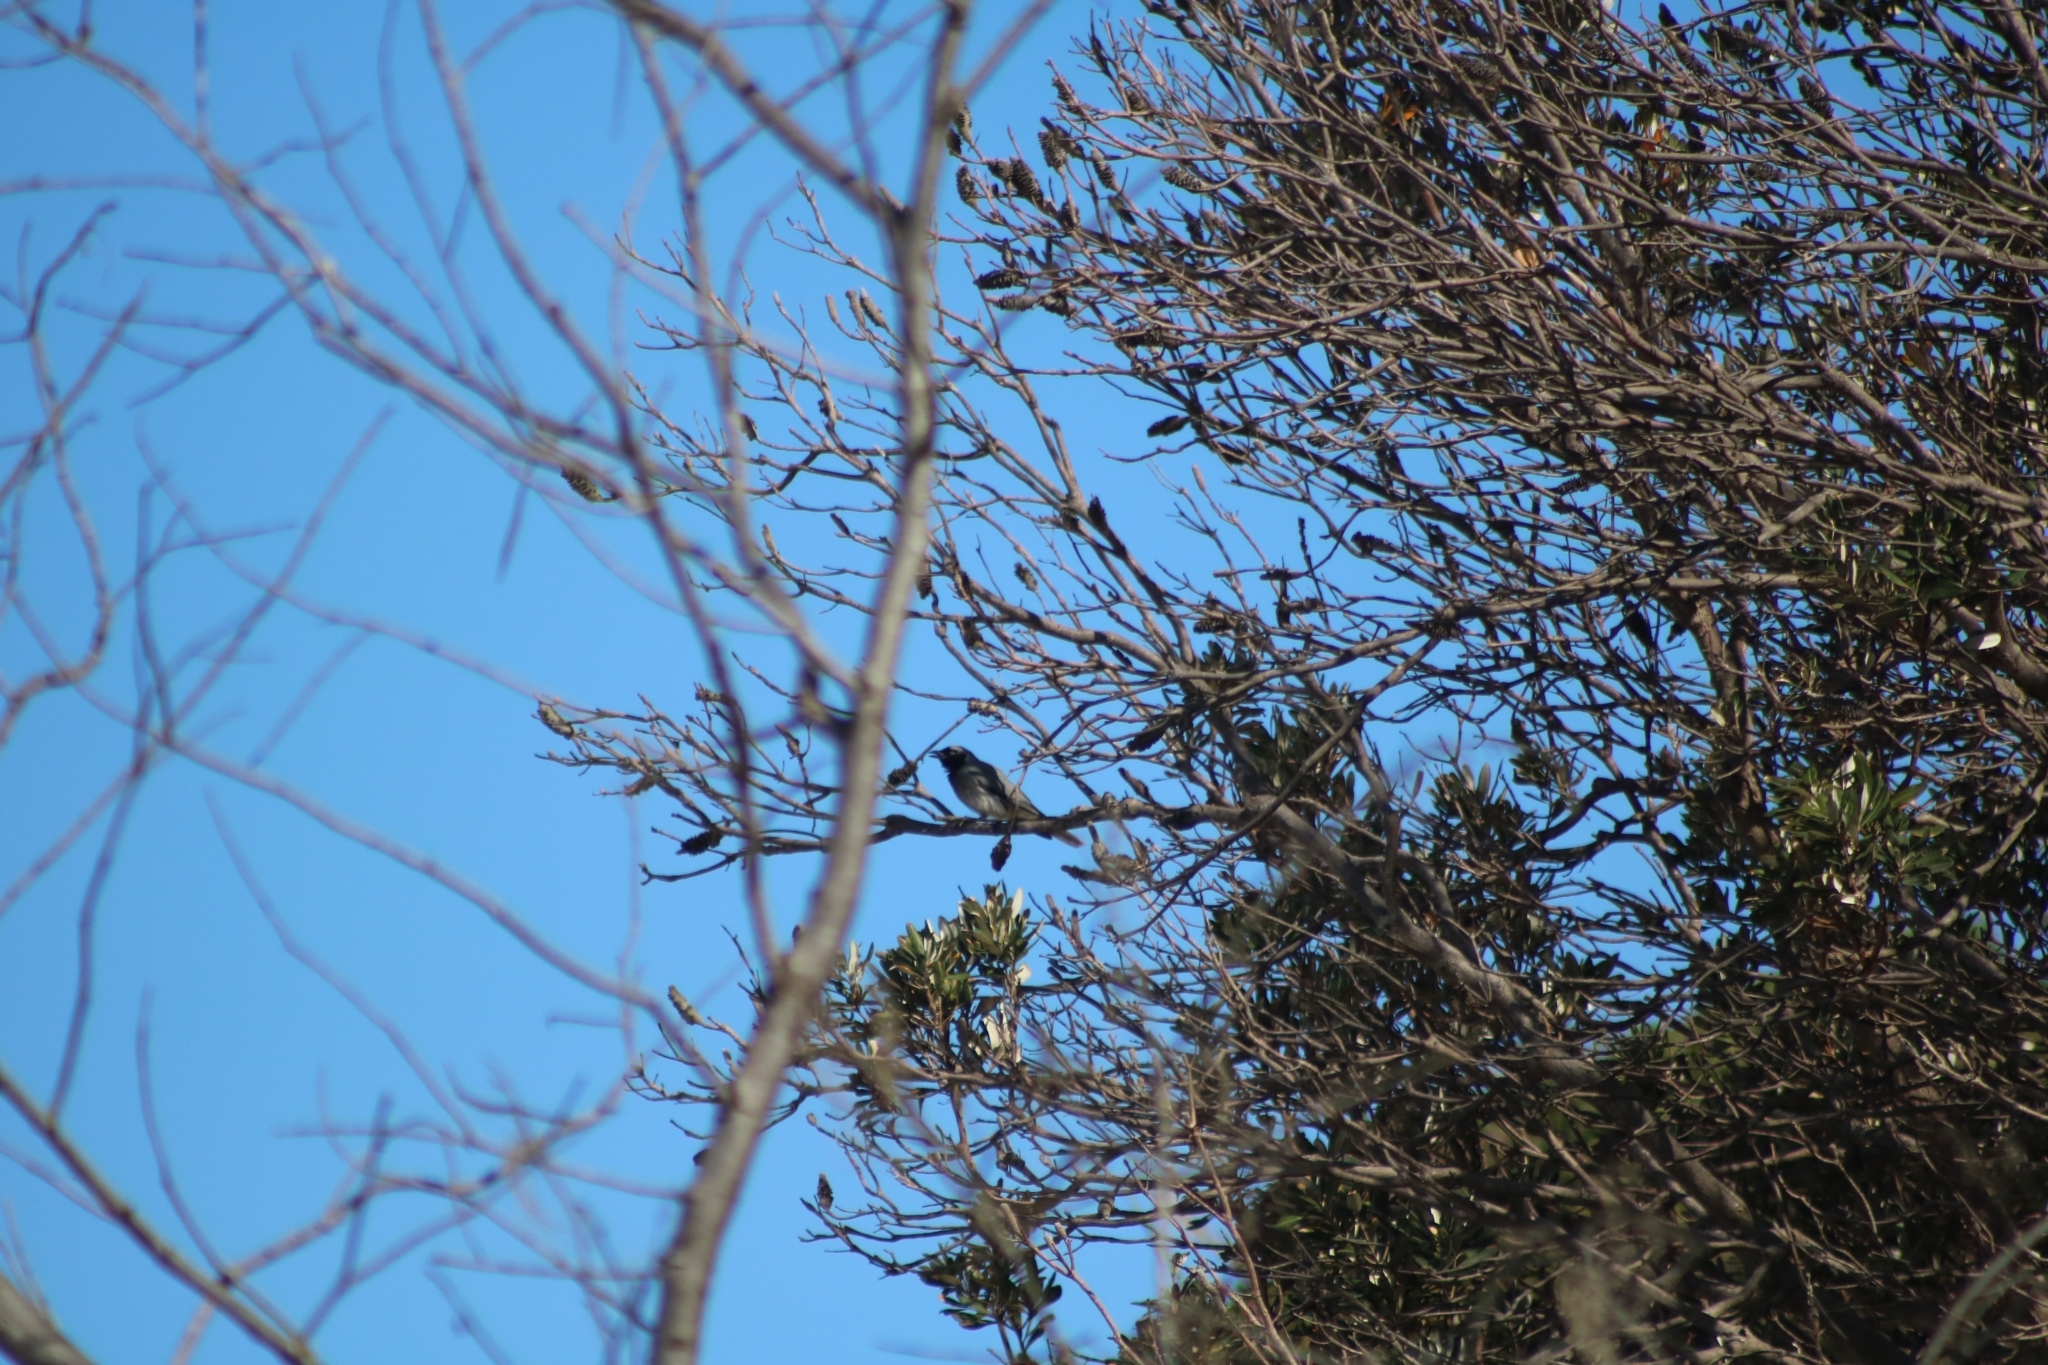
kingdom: Animalia
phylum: Chordata
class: Aves
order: Passeriformes
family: Campephagidae
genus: Coracina
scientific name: Coracina novaehollandiae
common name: Black-faced cuckooshrike
